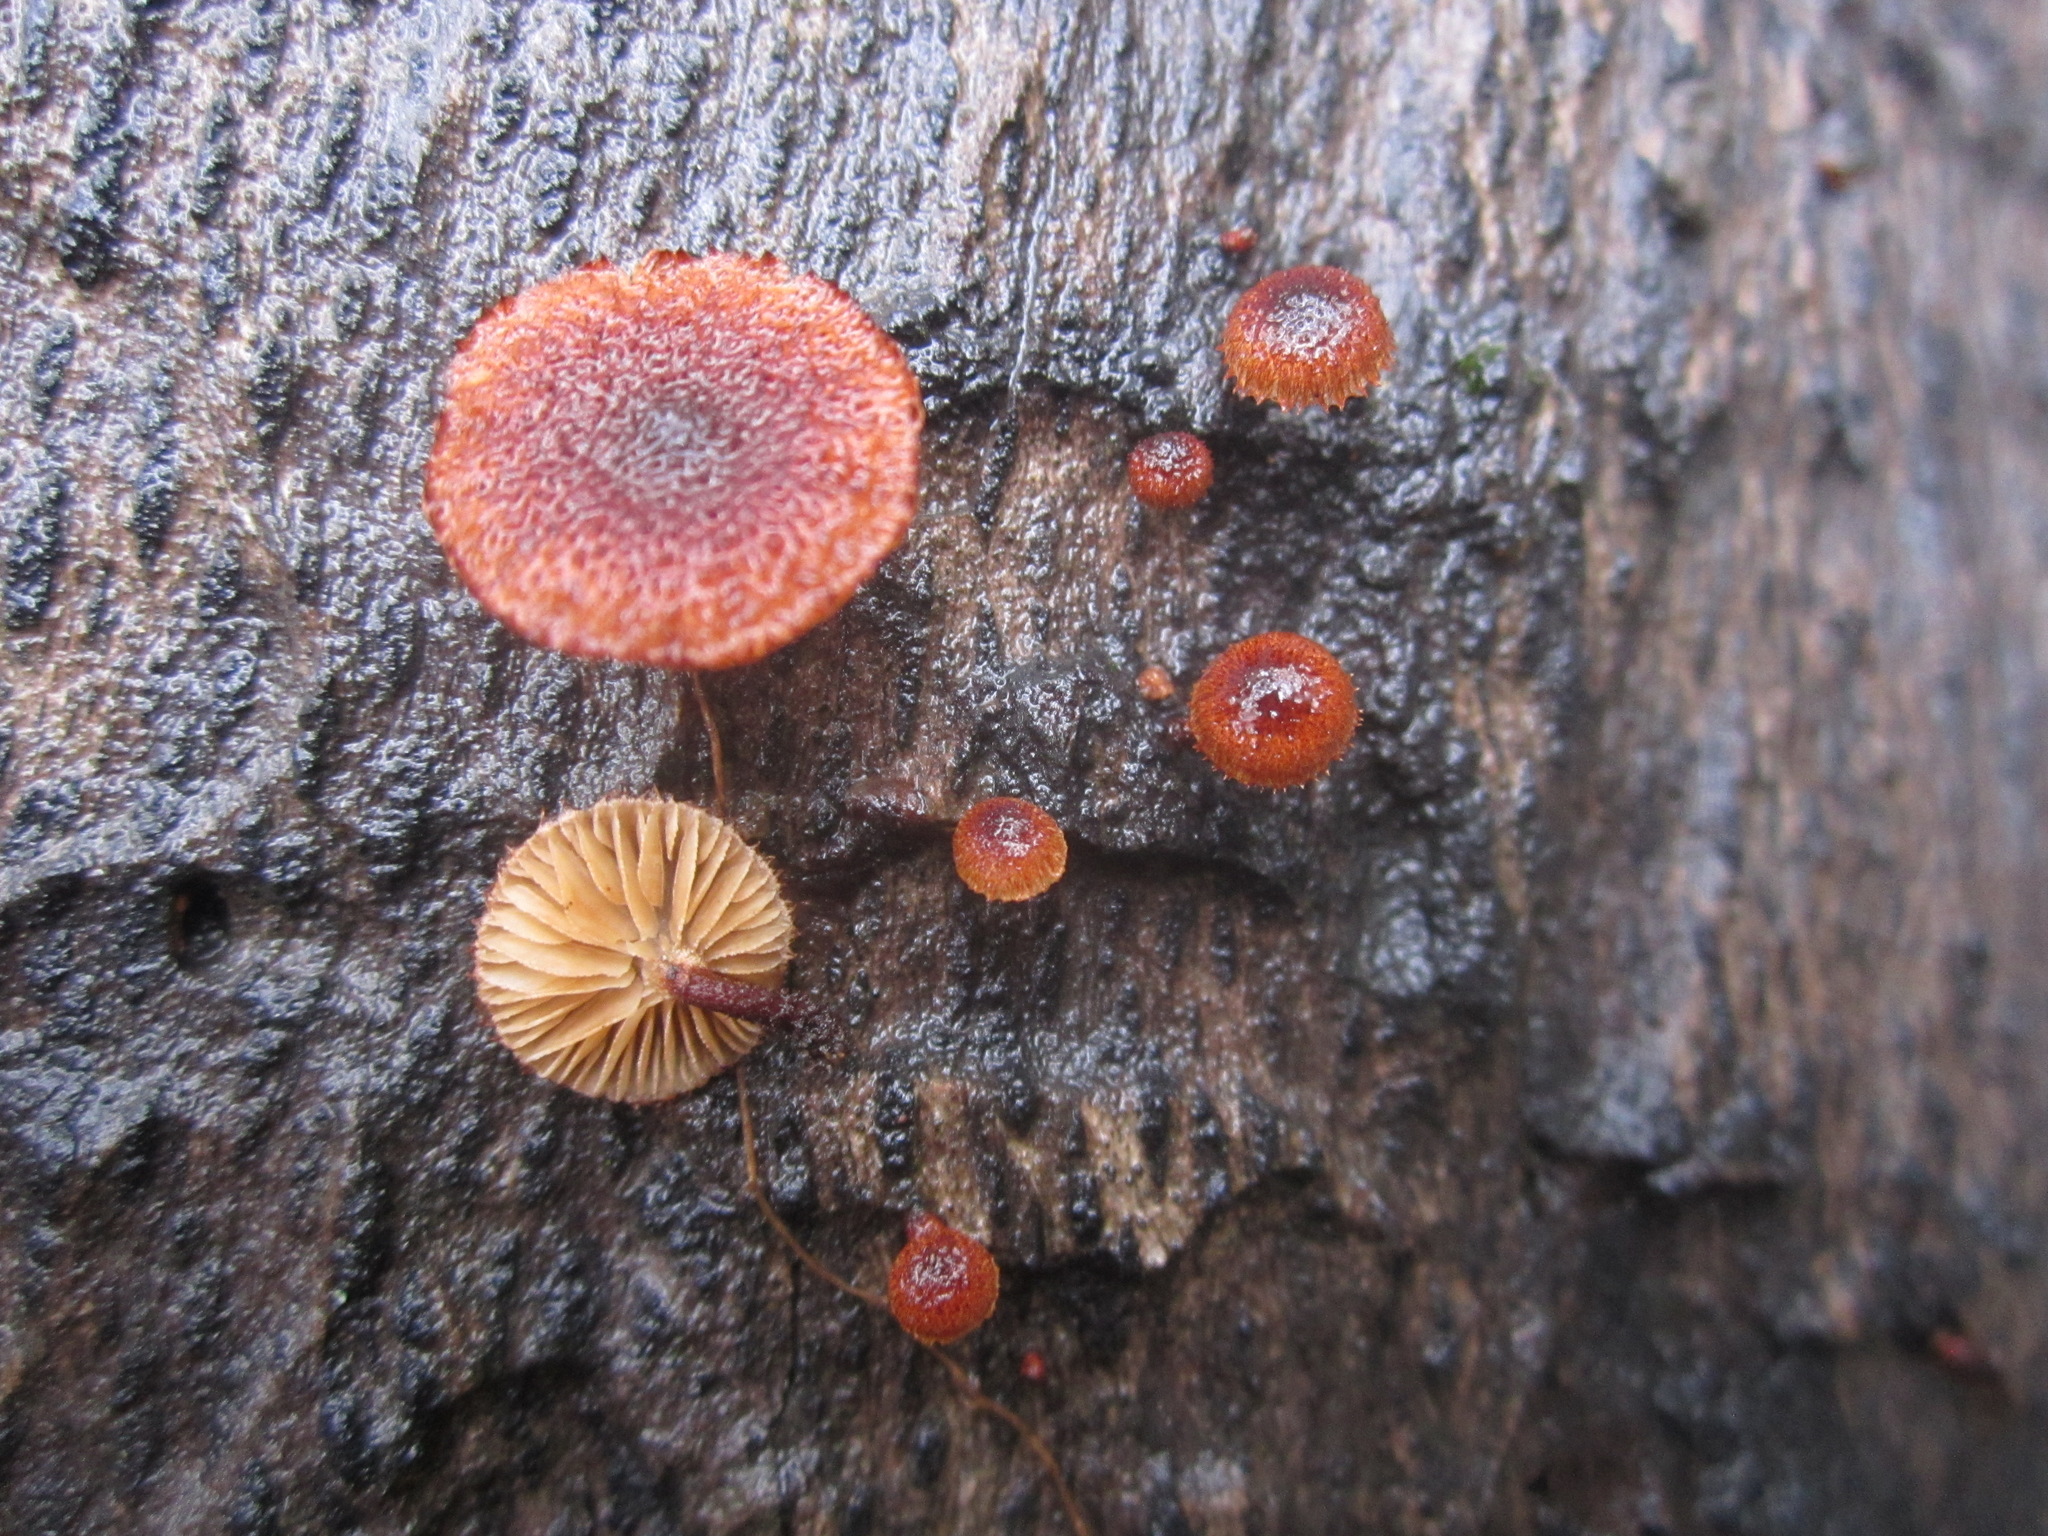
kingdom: Fungi
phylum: Basidiomycota
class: Agaricomycetes
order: Agaricales
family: Tubariaceae
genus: Phaeomarasmius
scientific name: Phaeomarasmius erinaceus
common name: Hedgehog scalycap
